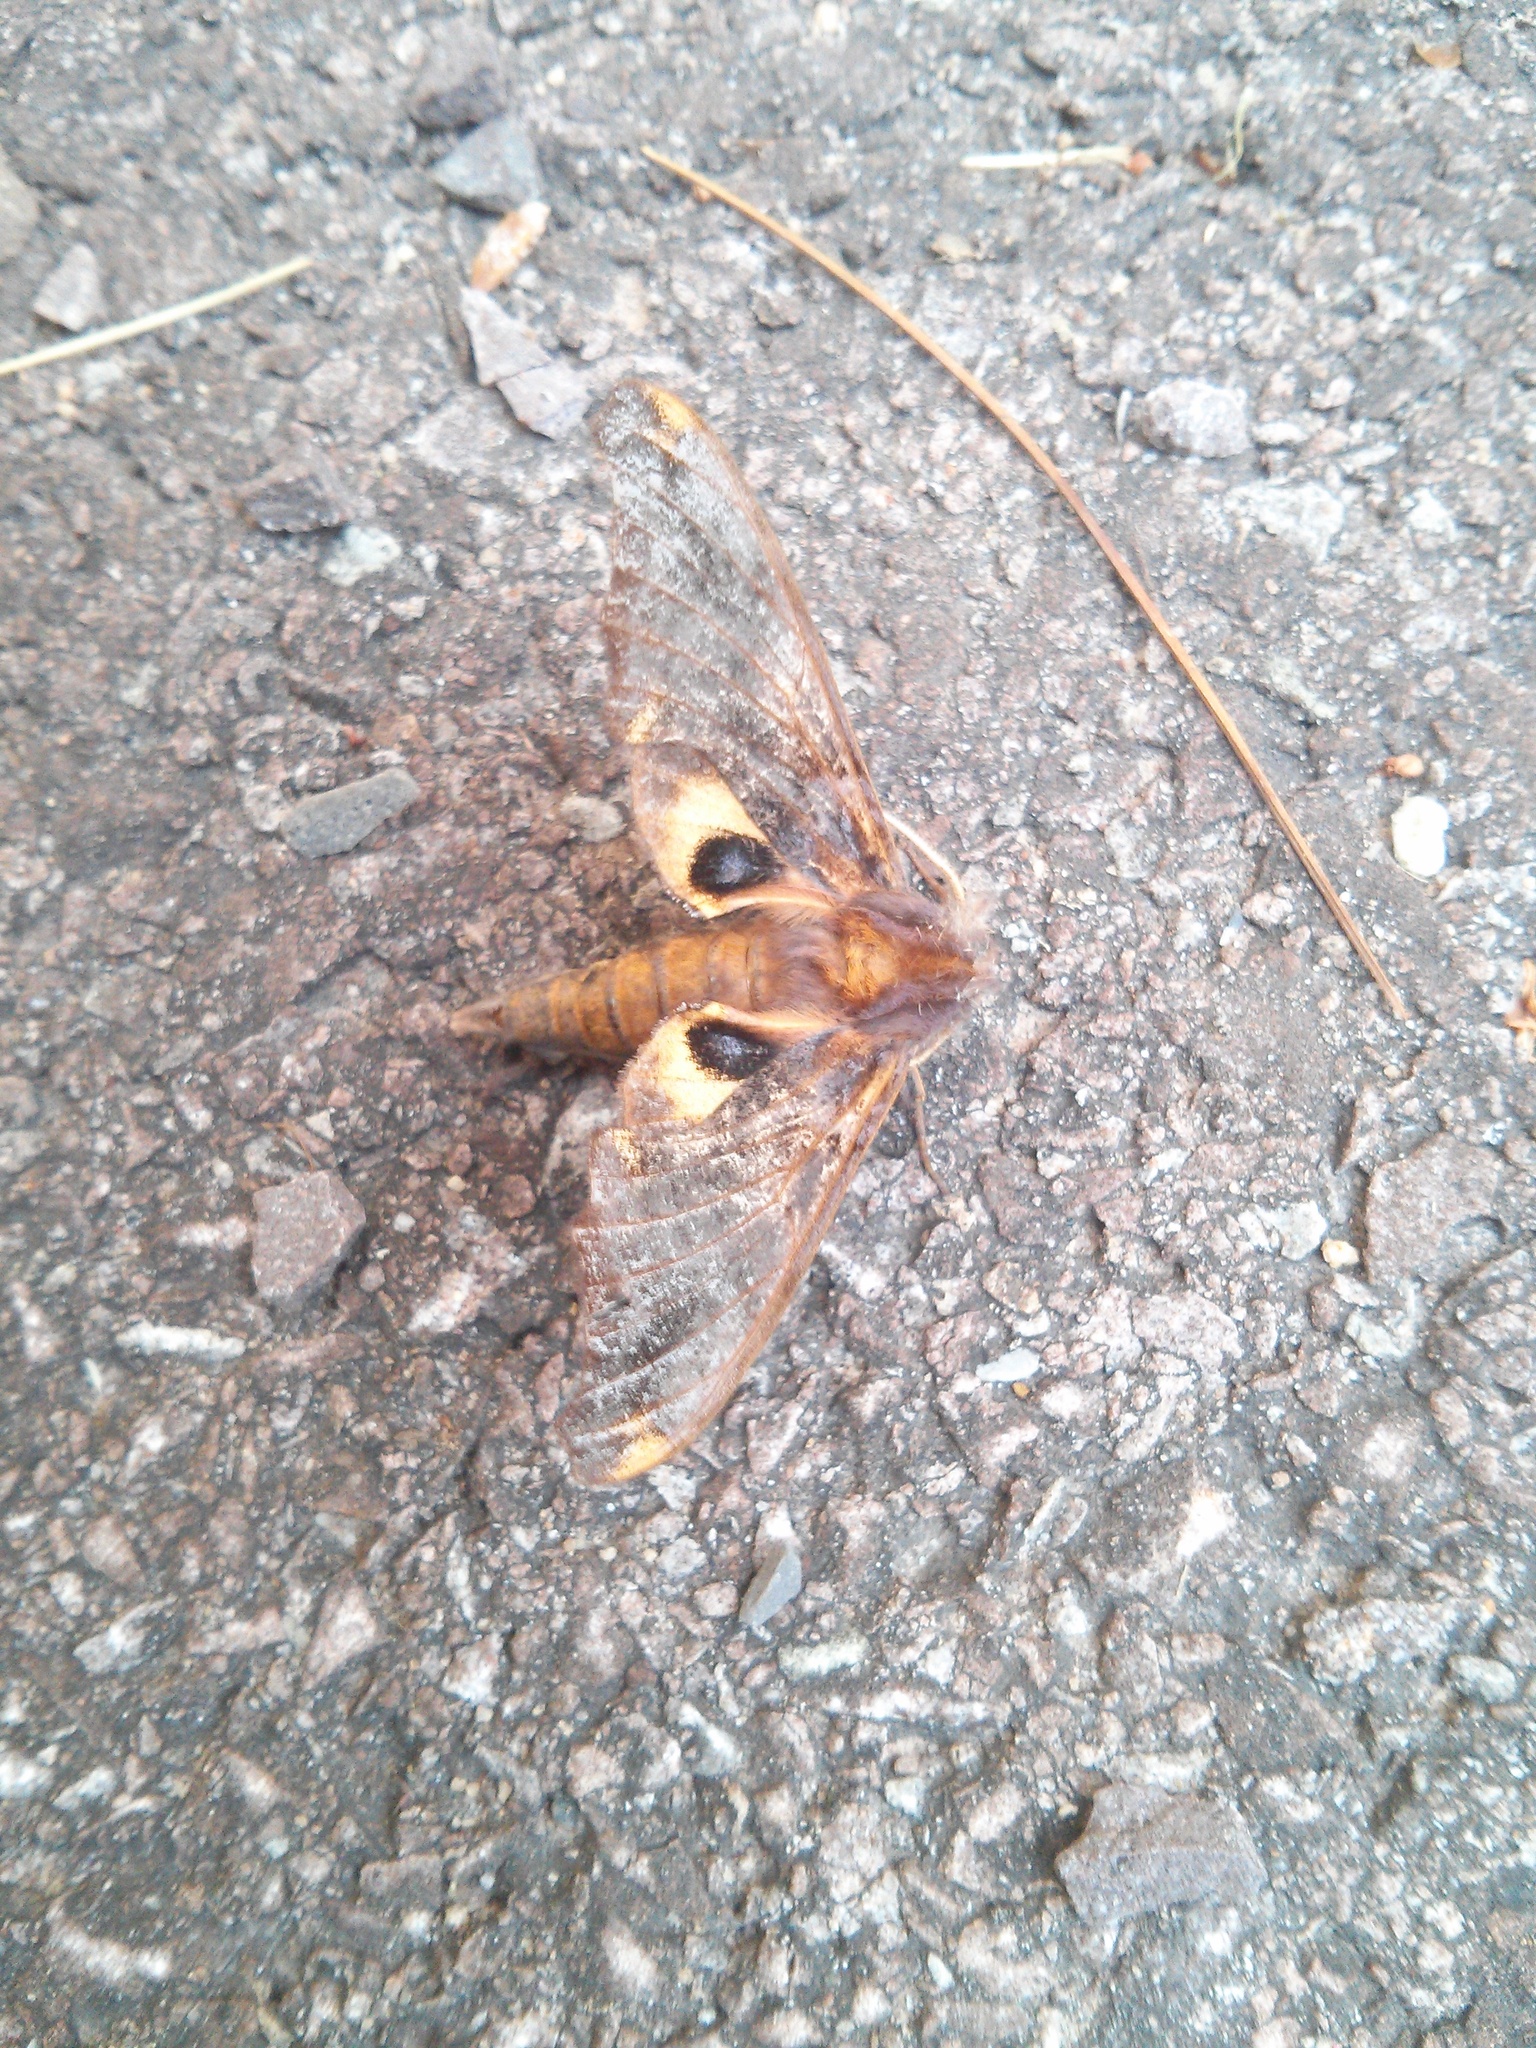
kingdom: Animalia
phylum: Arthropoda
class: Insecta
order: Lepidoptera
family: Sphingidae
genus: Paonias
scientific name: Paonias myops
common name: Small-eyed sphinx
